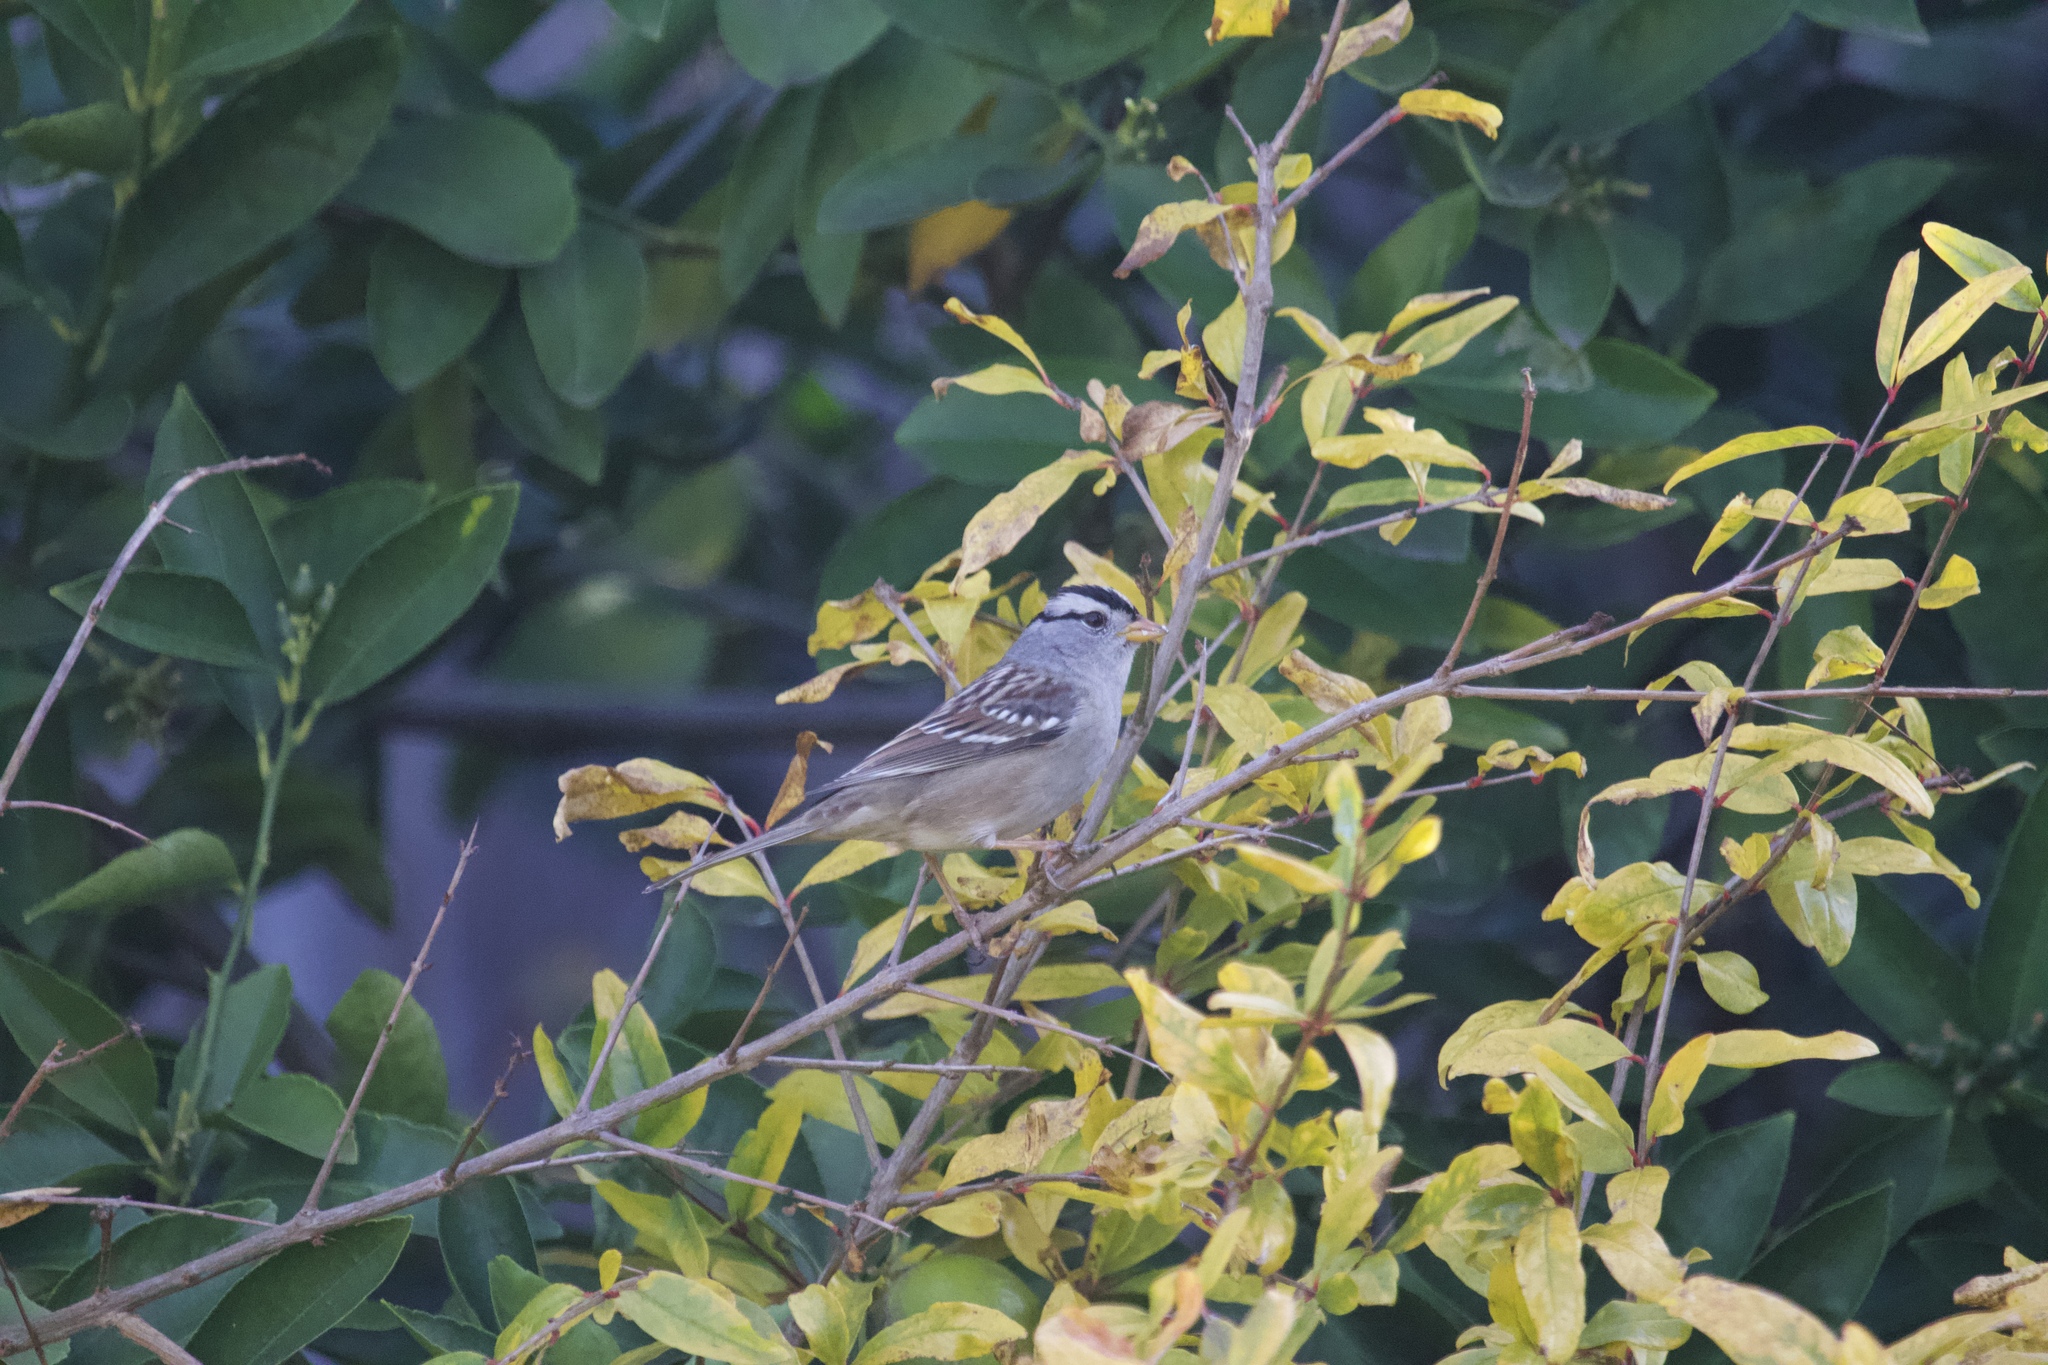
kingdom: Animalia
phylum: Chordata
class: Aves
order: Passeriformes
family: Passerellidae
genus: Zonotrichia
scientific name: Zonotrichia leucophrys
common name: White-crowned sparrow
